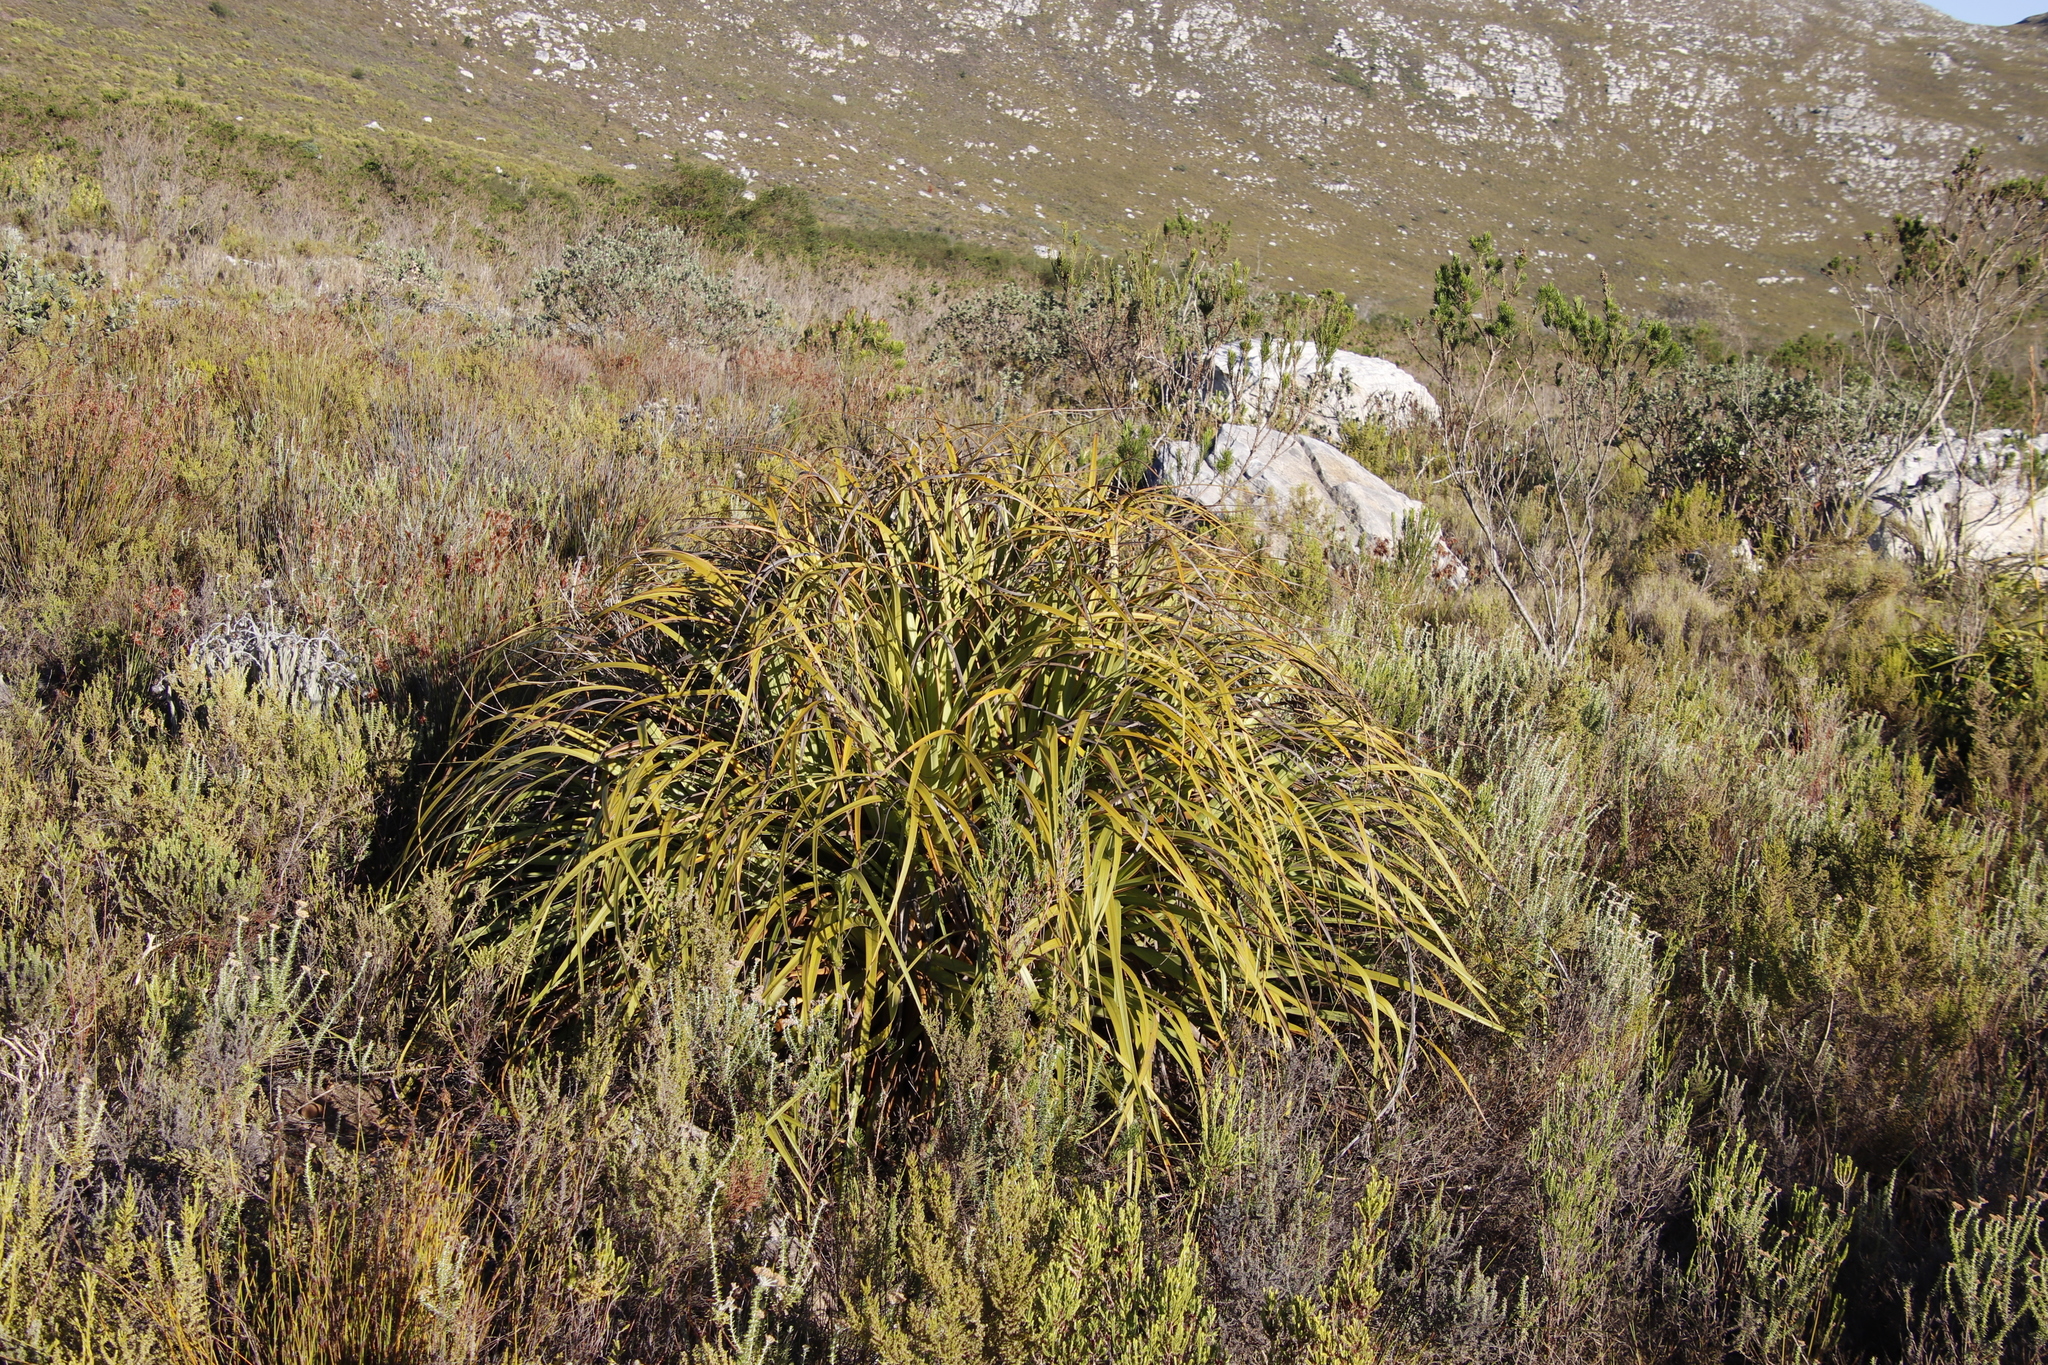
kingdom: Plantae
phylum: Tracheophyta
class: Liliopsida
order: Poales
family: Cyperaceae
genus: Tetraria
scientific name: Tetraria thermalis
